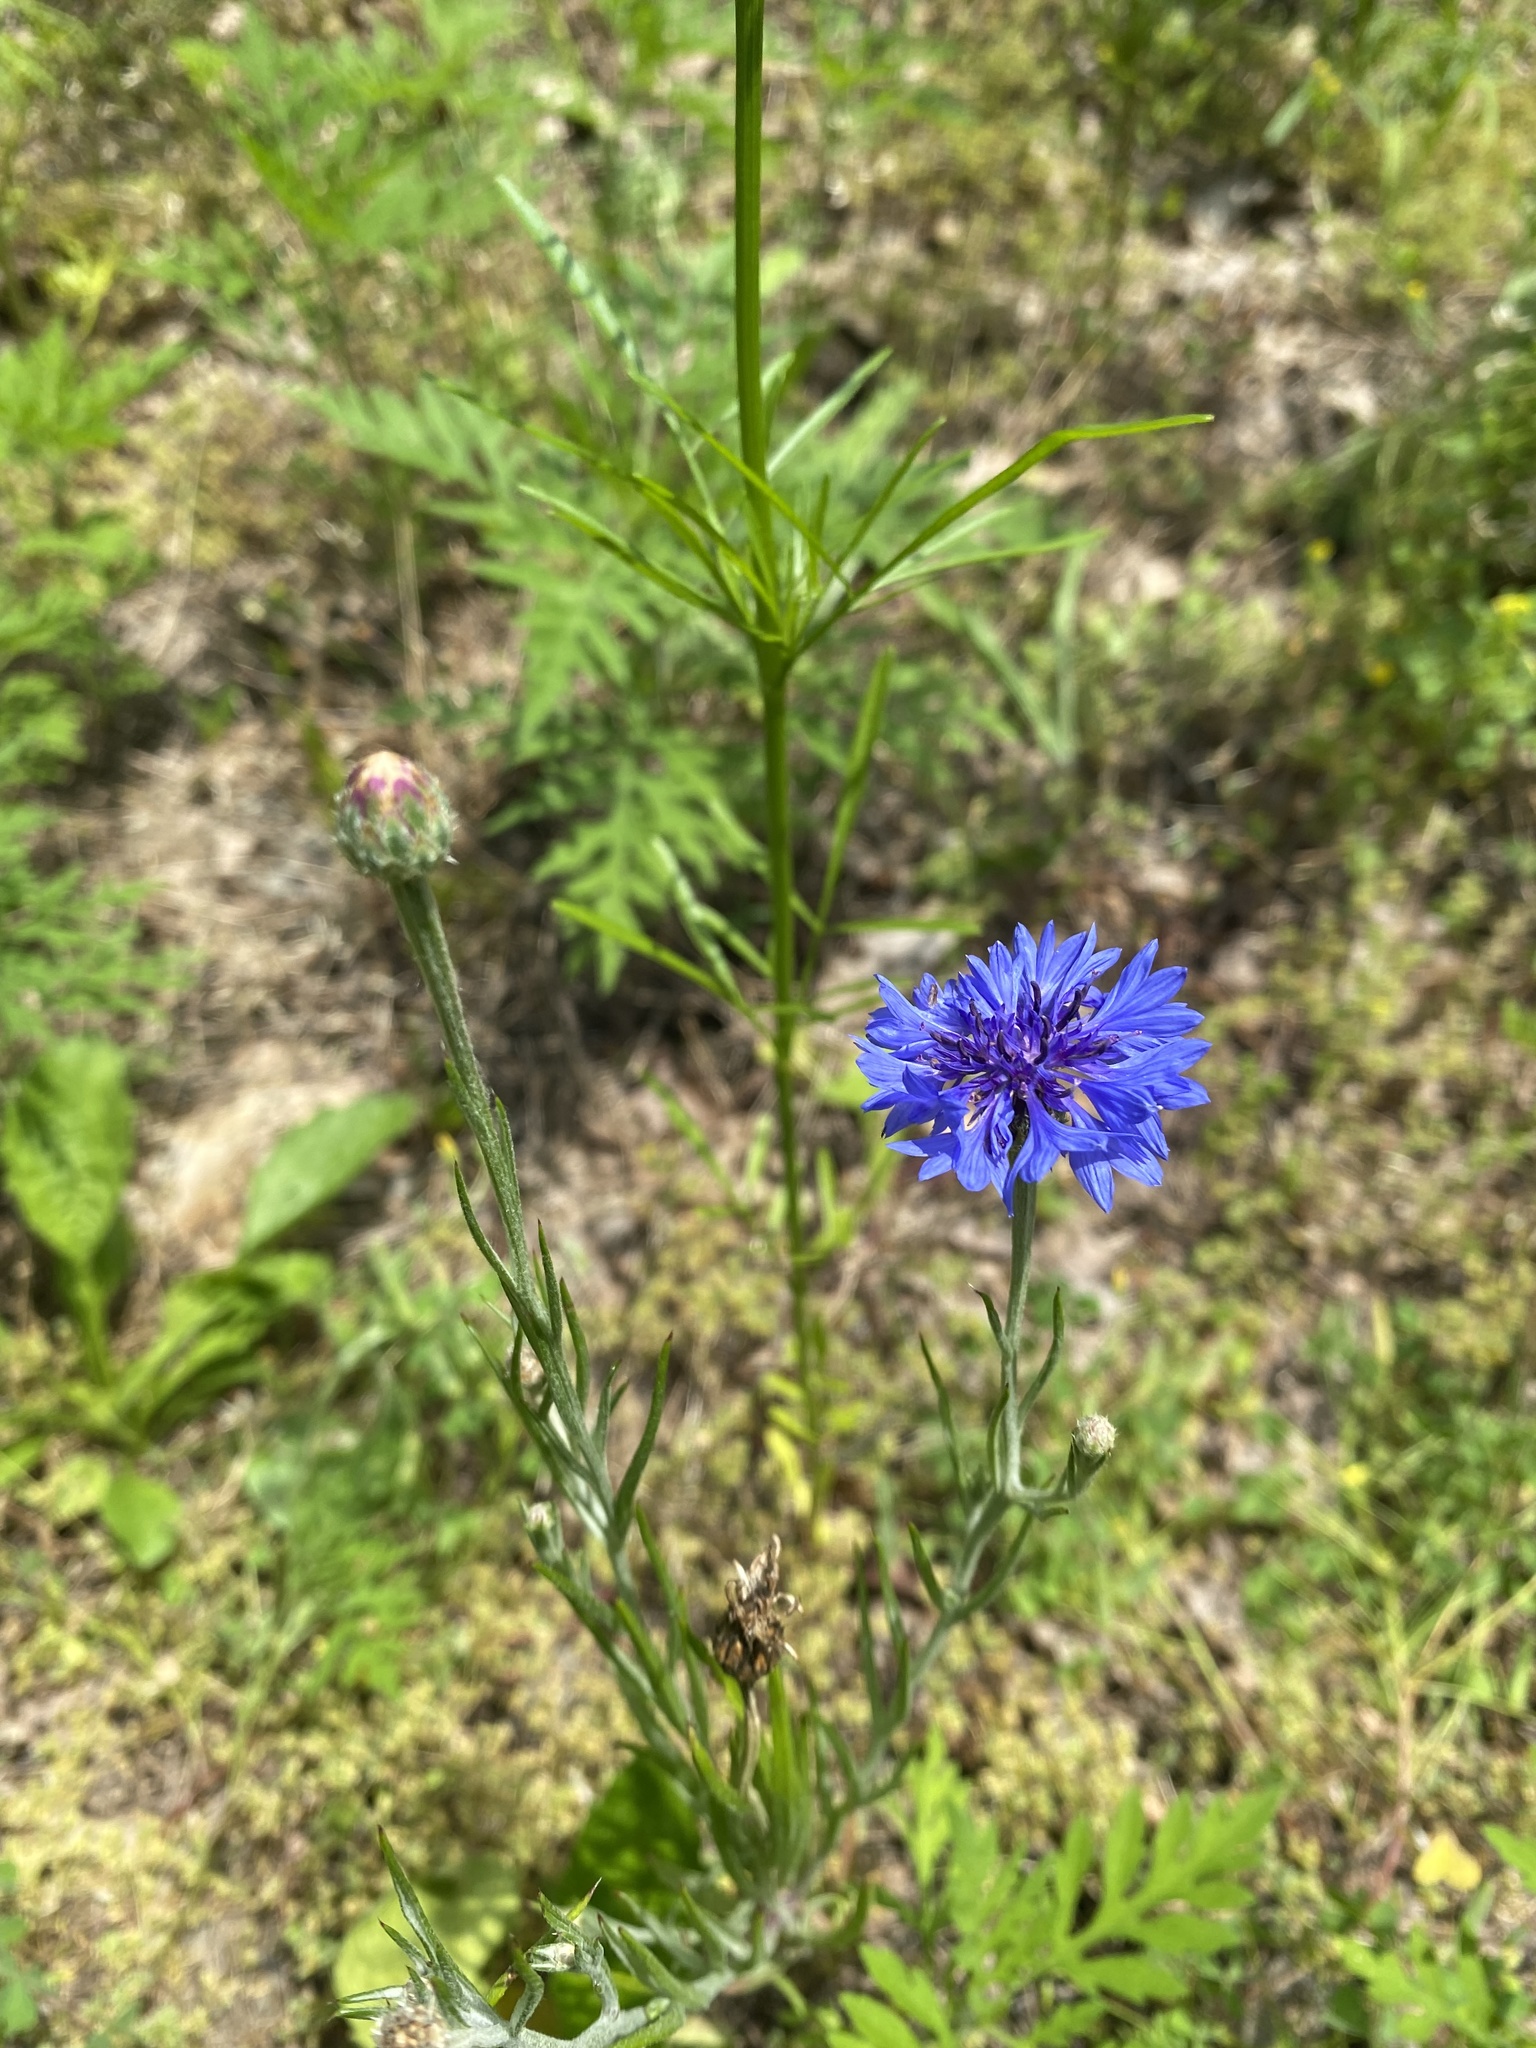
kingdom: Plantae
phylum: Tracheophyta
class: Magnoliopsida
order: Asterales
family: Asteraceae
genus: Centaurea
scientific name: Centaurea cyanus
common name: Cornflower
